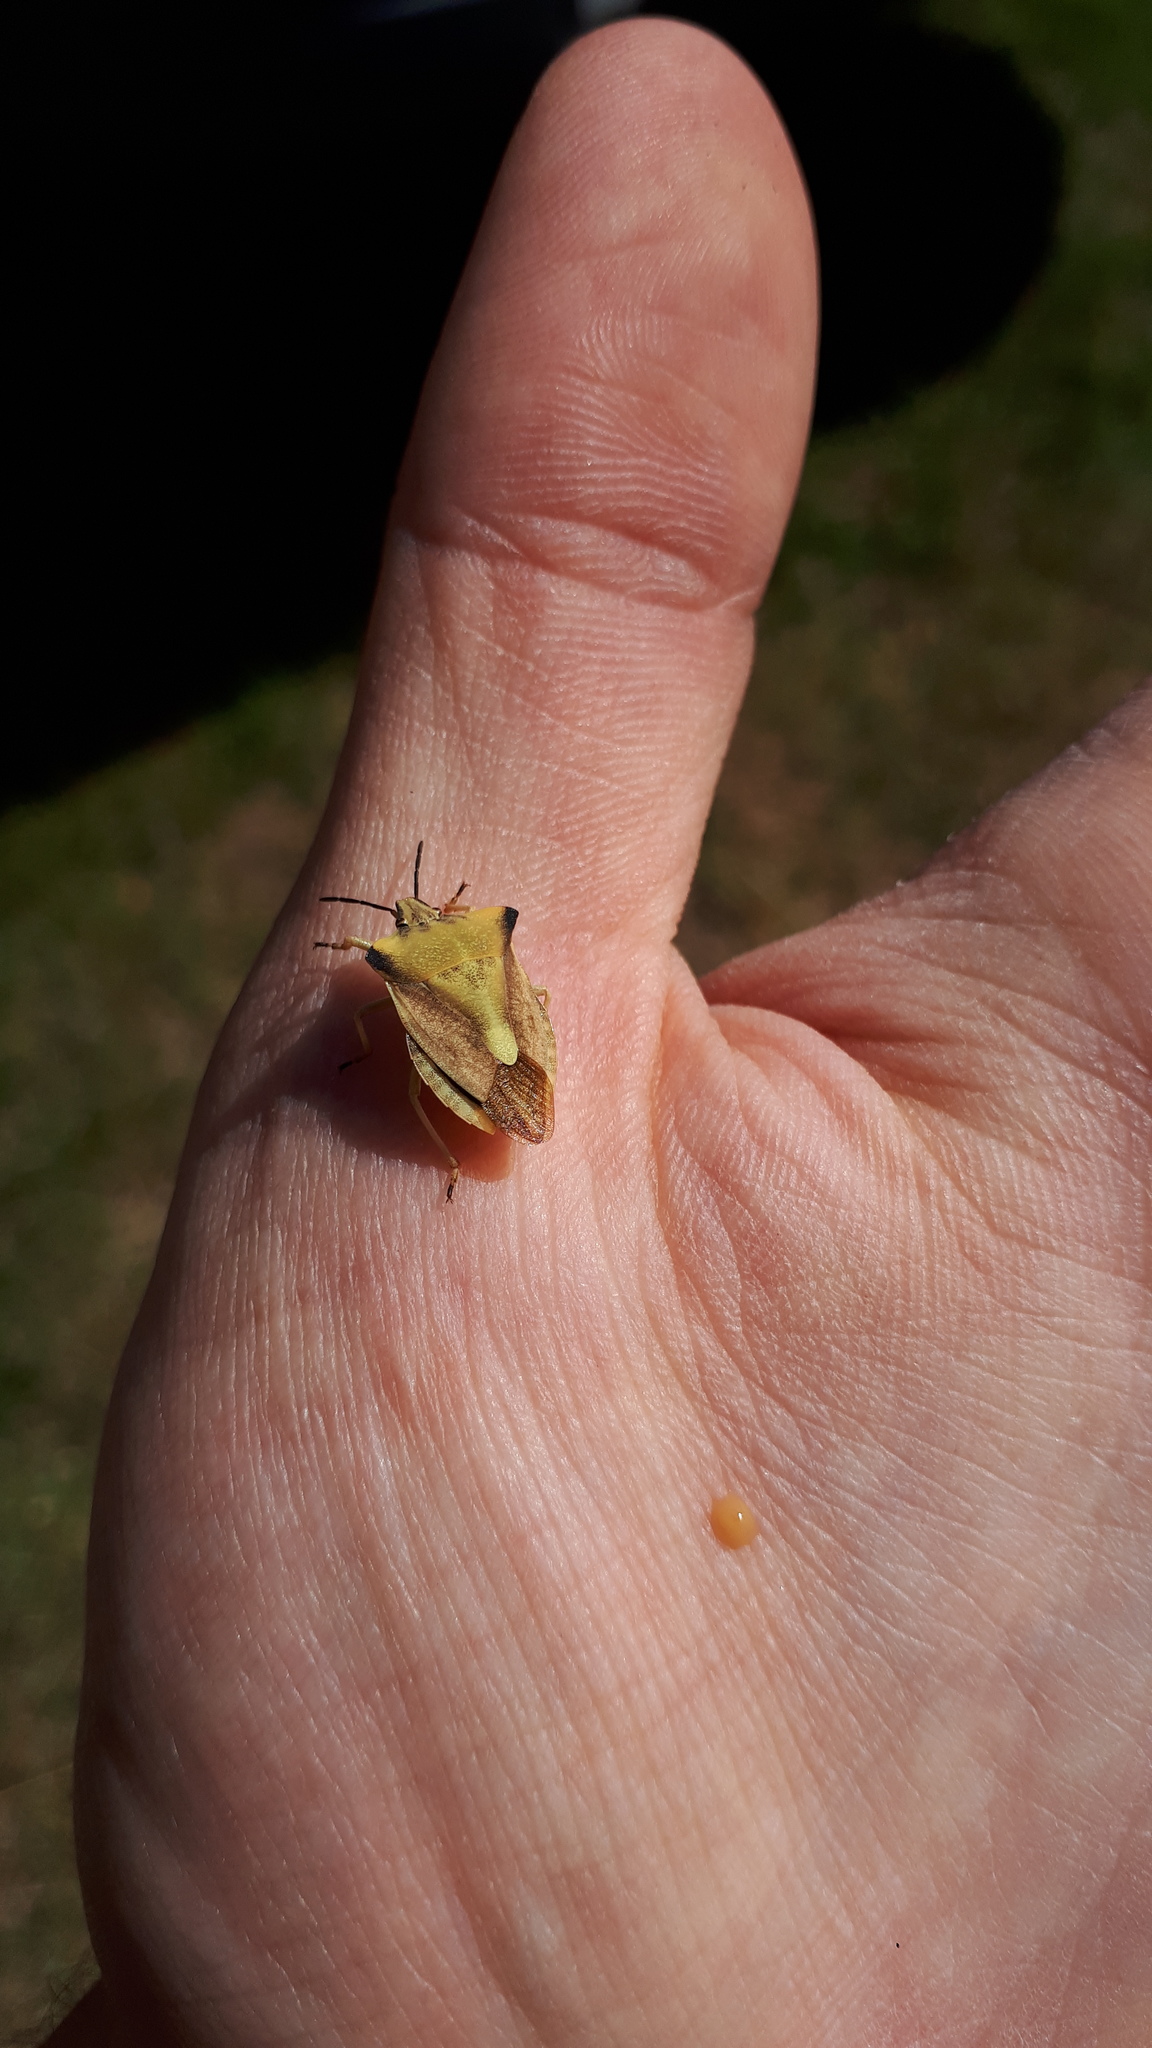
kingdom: Animalia
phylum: Arthropoda
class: Insecta
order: Hemiptera
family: Pentatomidae
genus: Carpocoris
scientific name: Carpocoris fuscispinus
